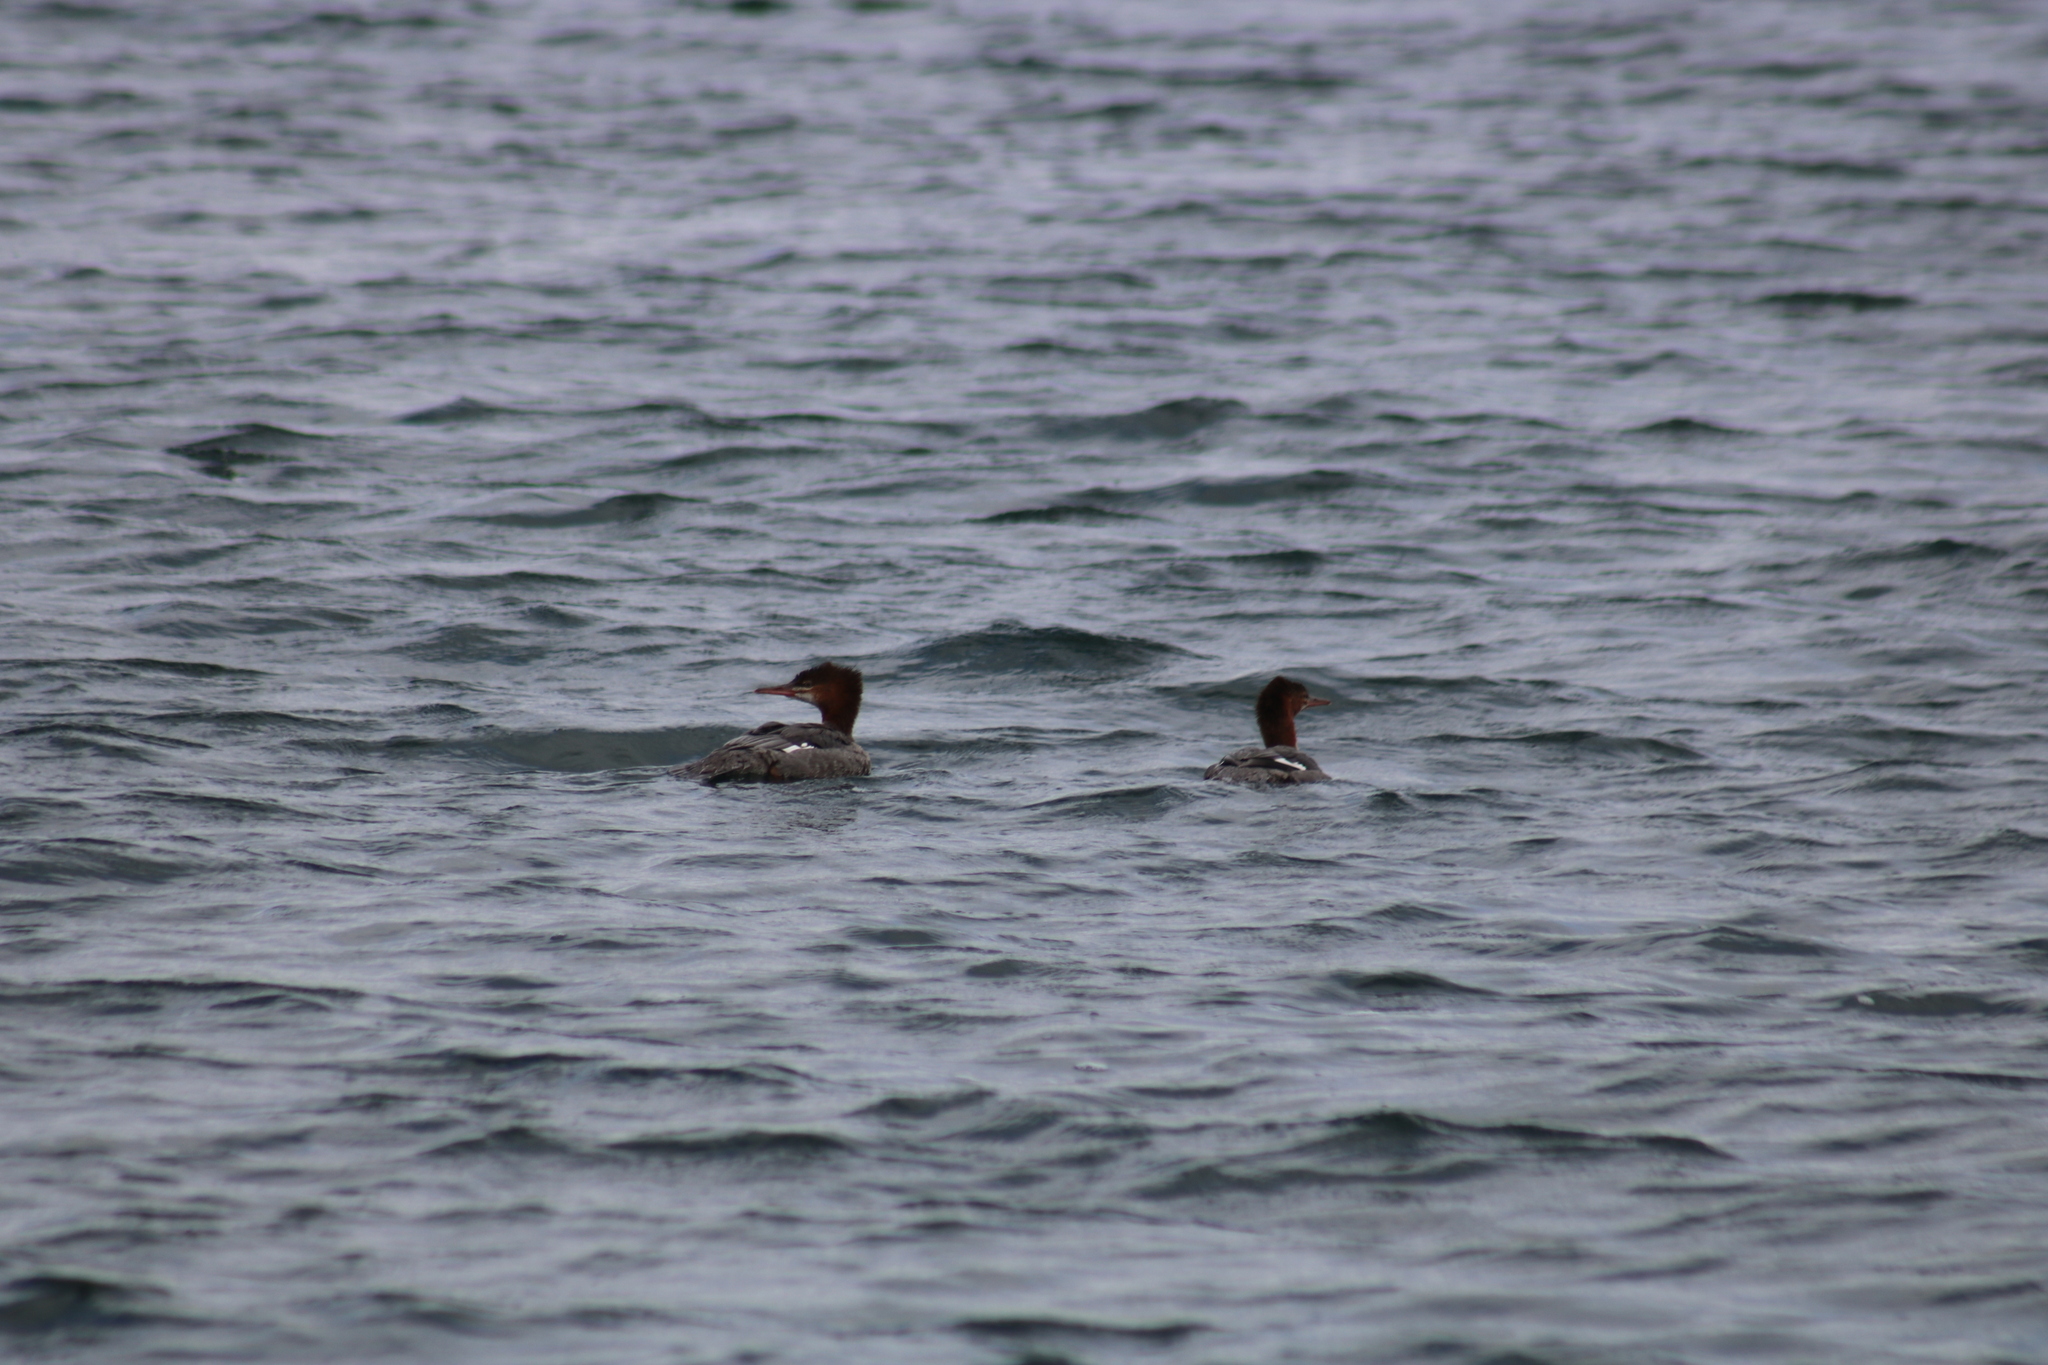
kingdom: Animalia
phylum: Chordata
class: Aves
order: Anseriformes
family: Anatidae
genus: Mergus
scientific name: Mergus merganser
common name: Common merganser
